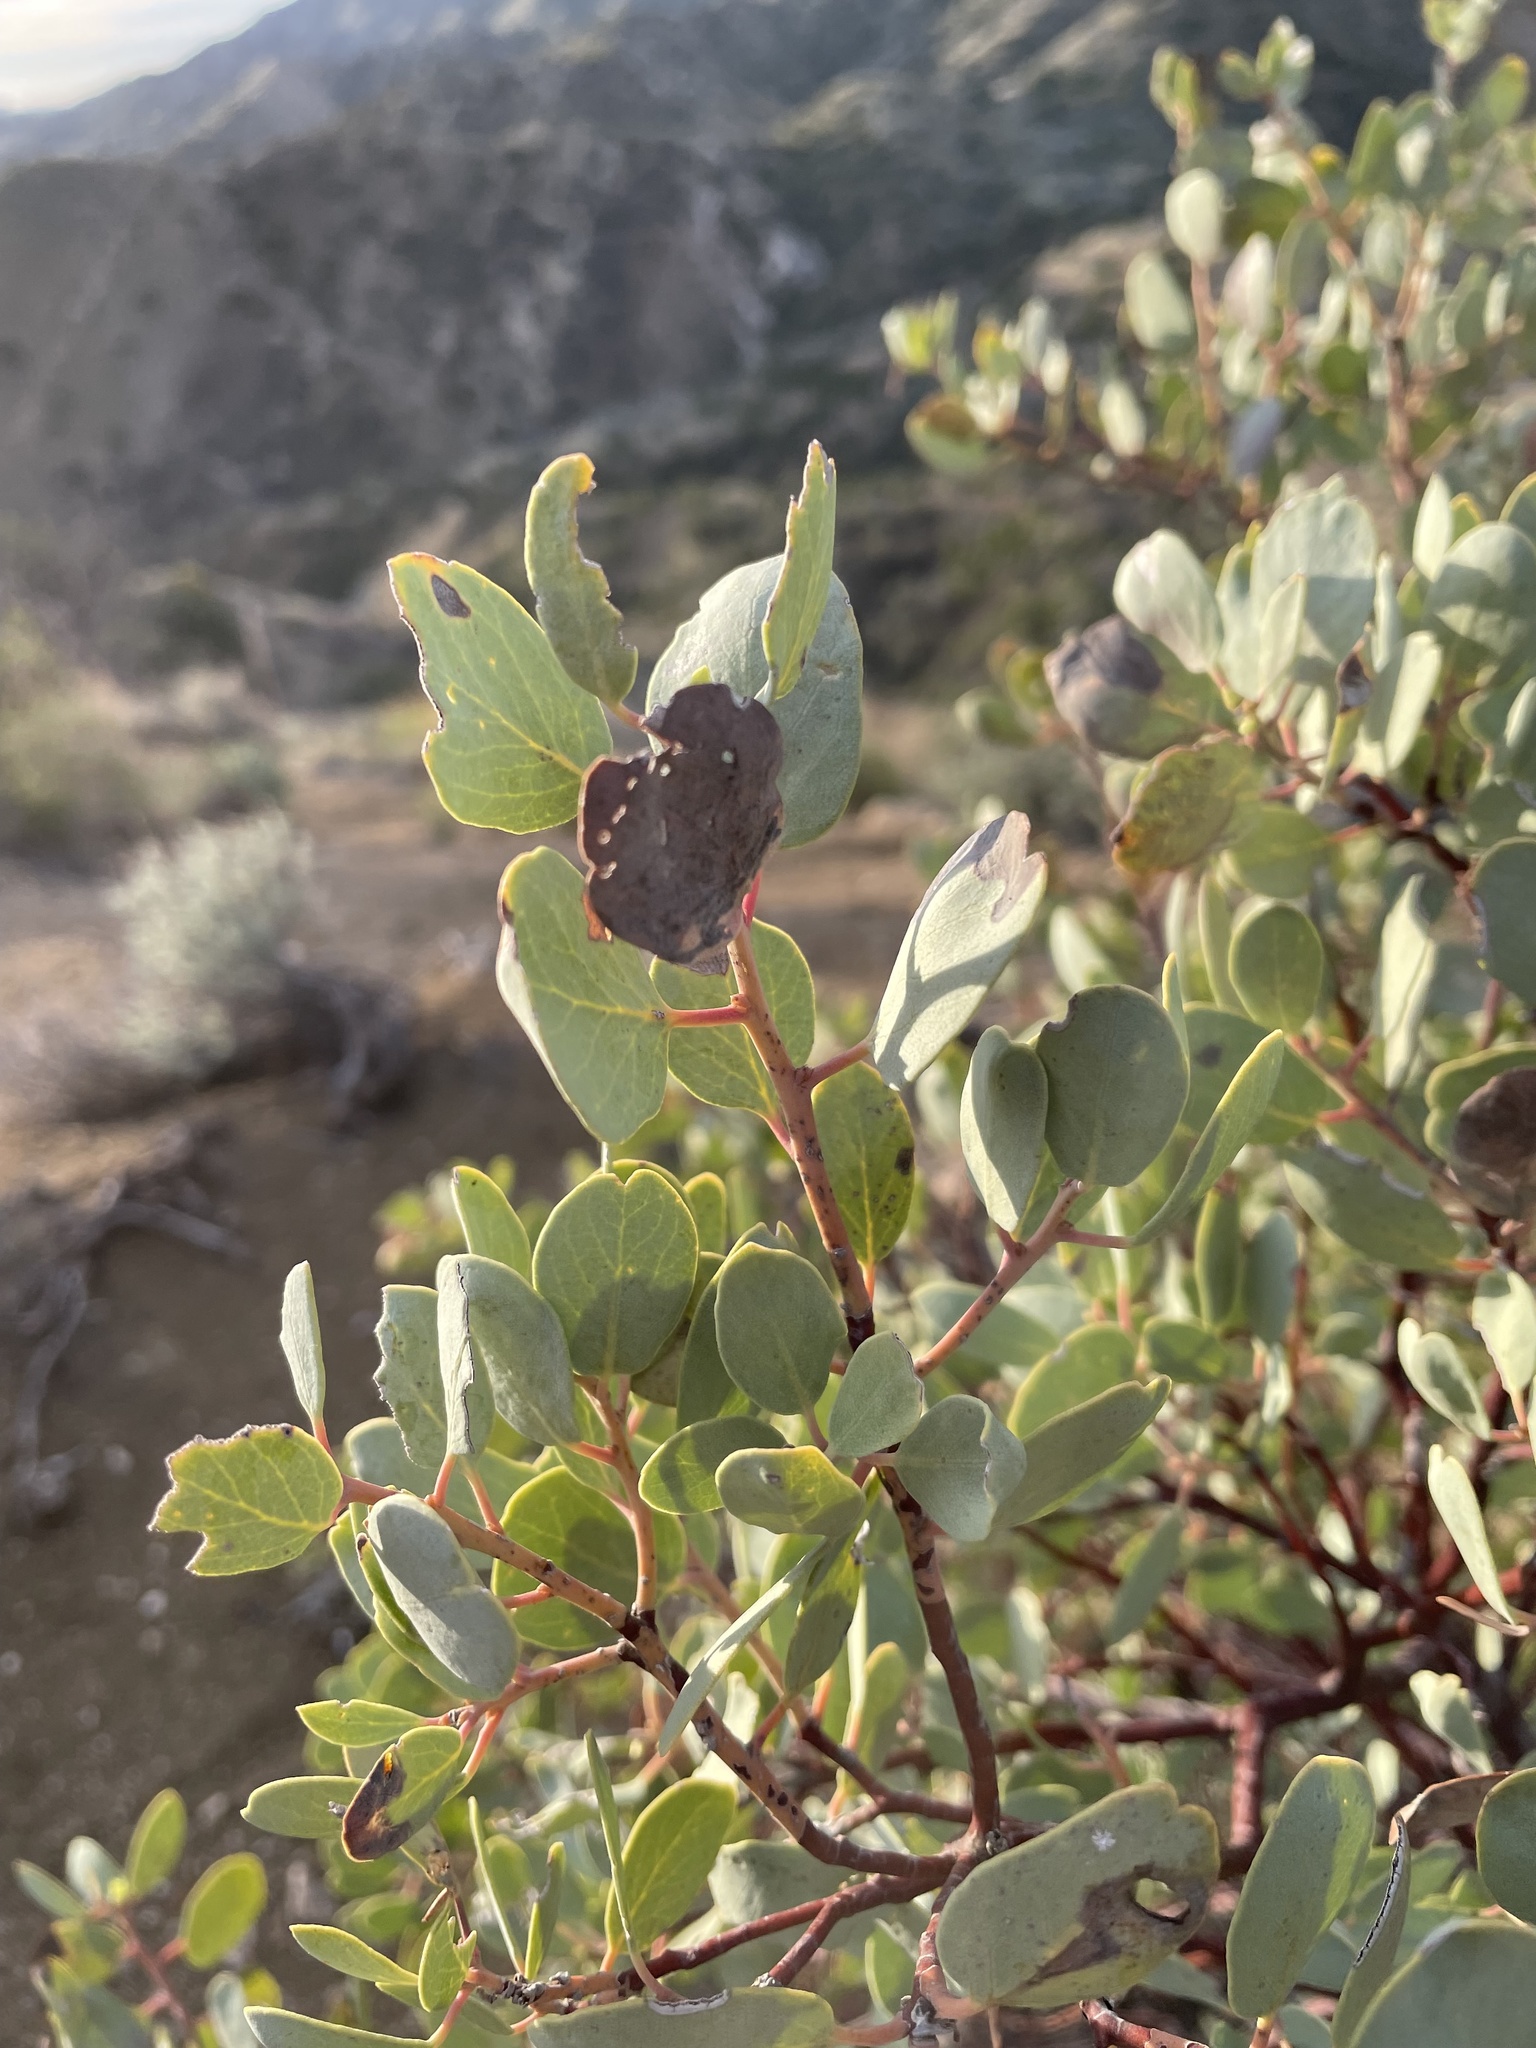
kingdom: Plantae
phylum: Tracheophyta
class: Magnoliopsida
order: Ericales
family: Ericaceae
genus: Arctostaphylos
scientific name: Arctostaphylos glauca
